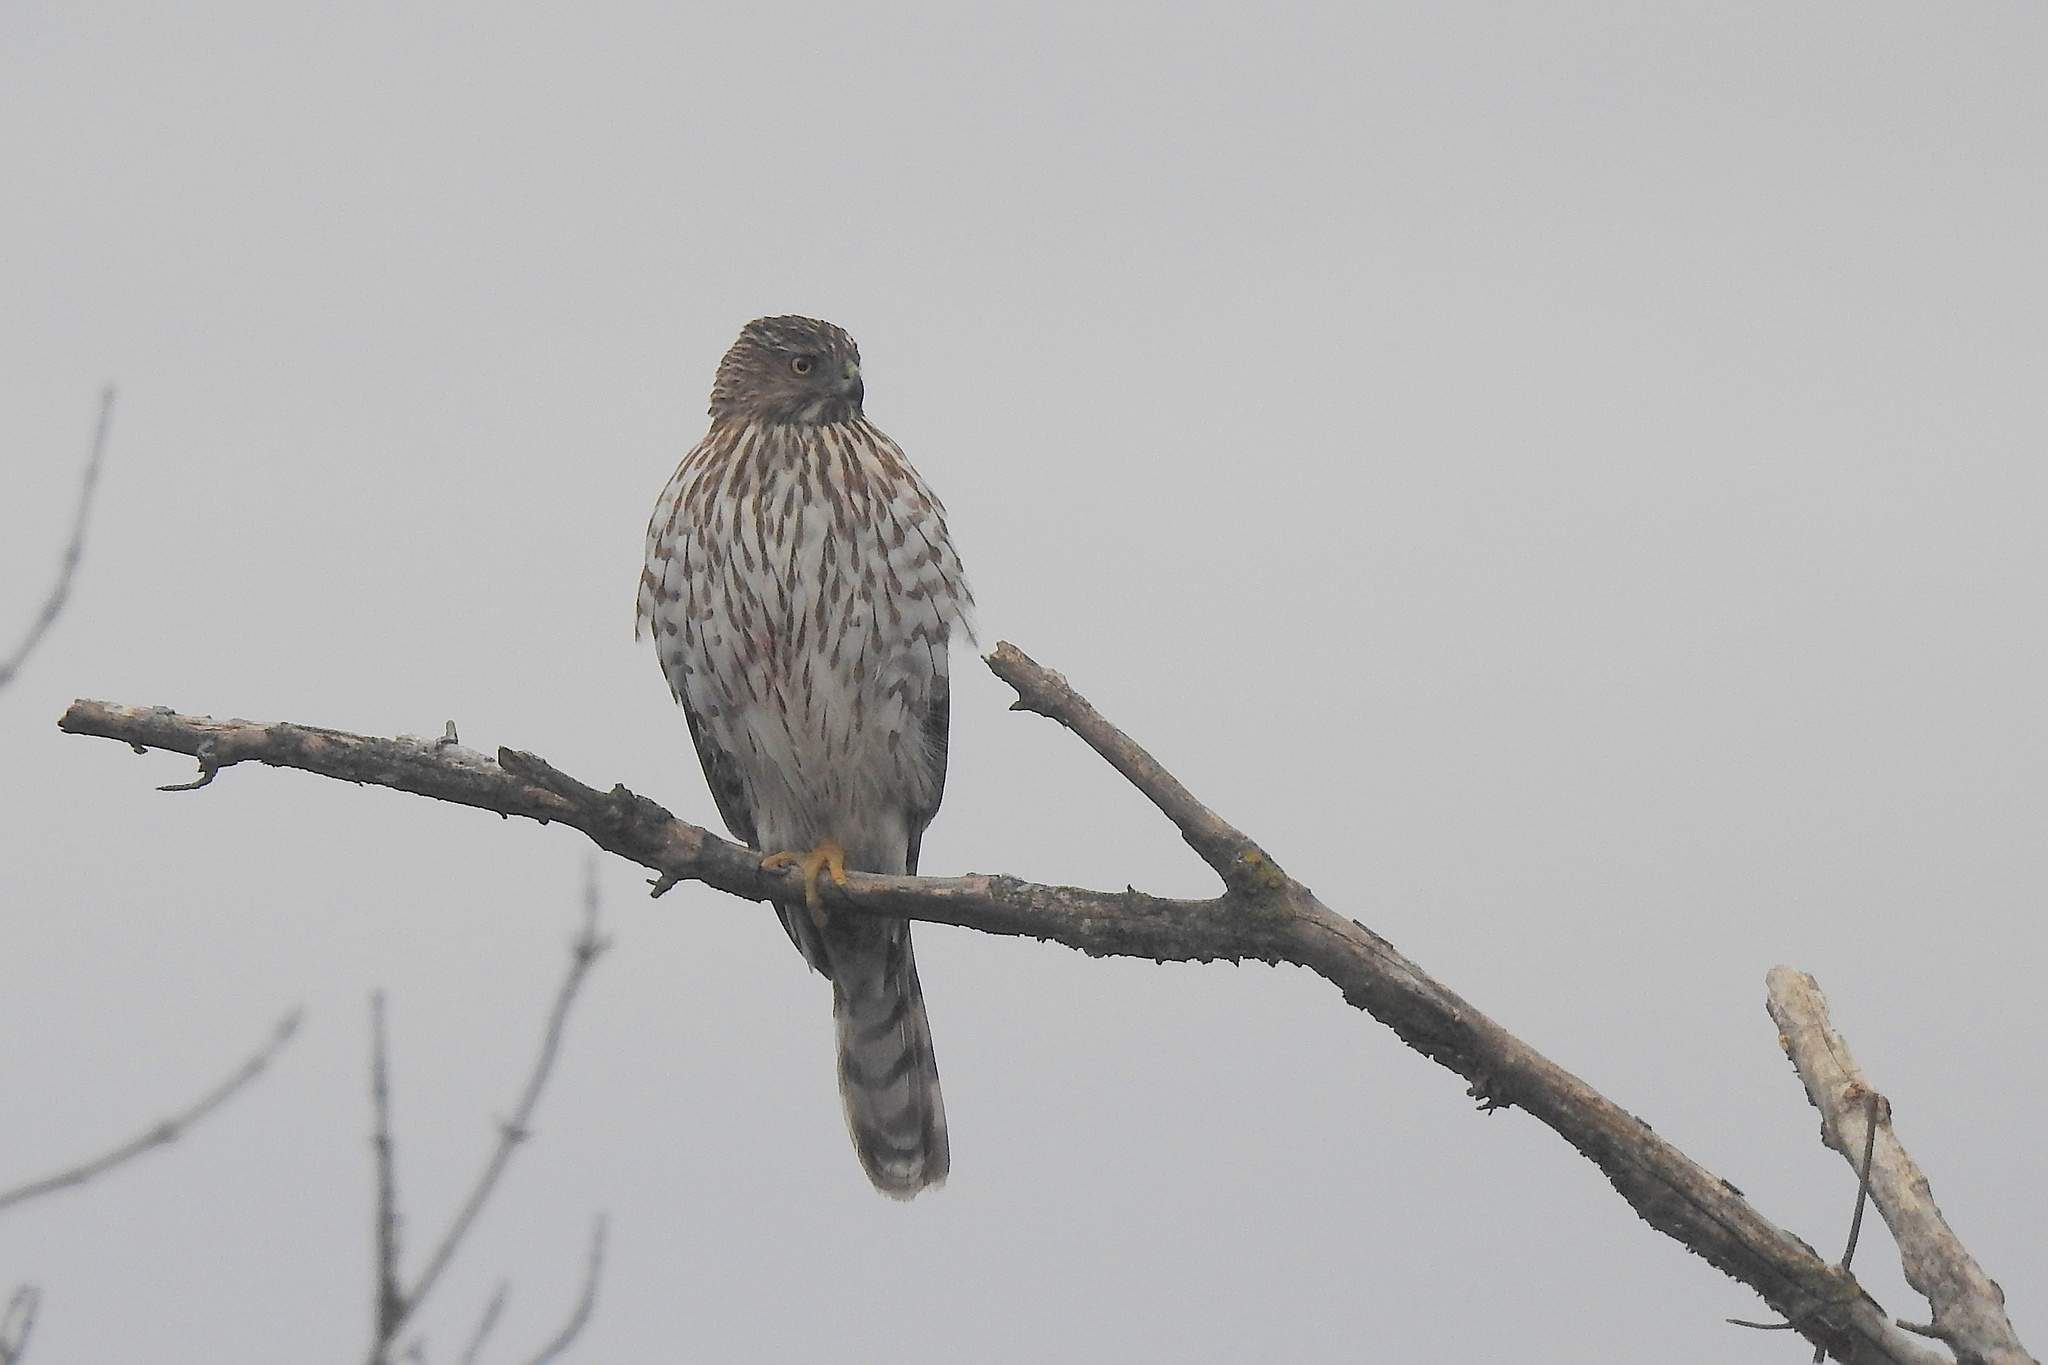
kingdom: Animalia
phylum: Chordata
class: Aves
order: Accipitriformes
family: Accipitridae
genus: Accipiter
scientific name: Accipiter cooperii
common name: Cooper's hawk
